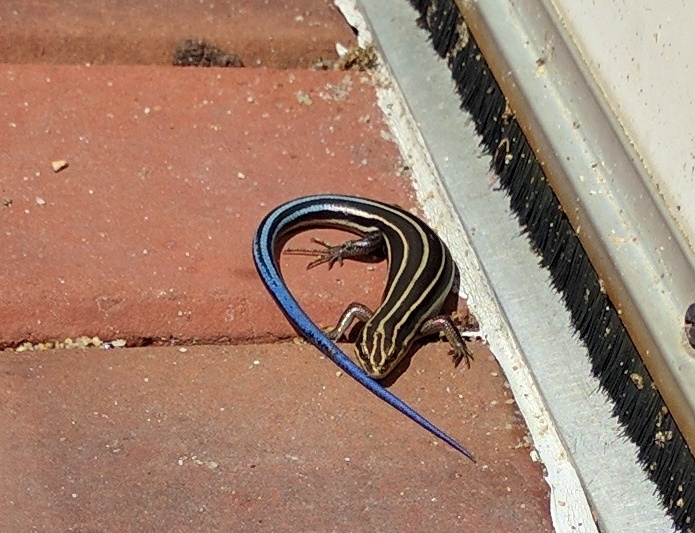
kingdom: Animalia
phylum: Chordata
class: Squamata
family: Scincidae
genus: Plestiodon
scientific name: Plestiodon fasciatus
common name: Five-lined skink
